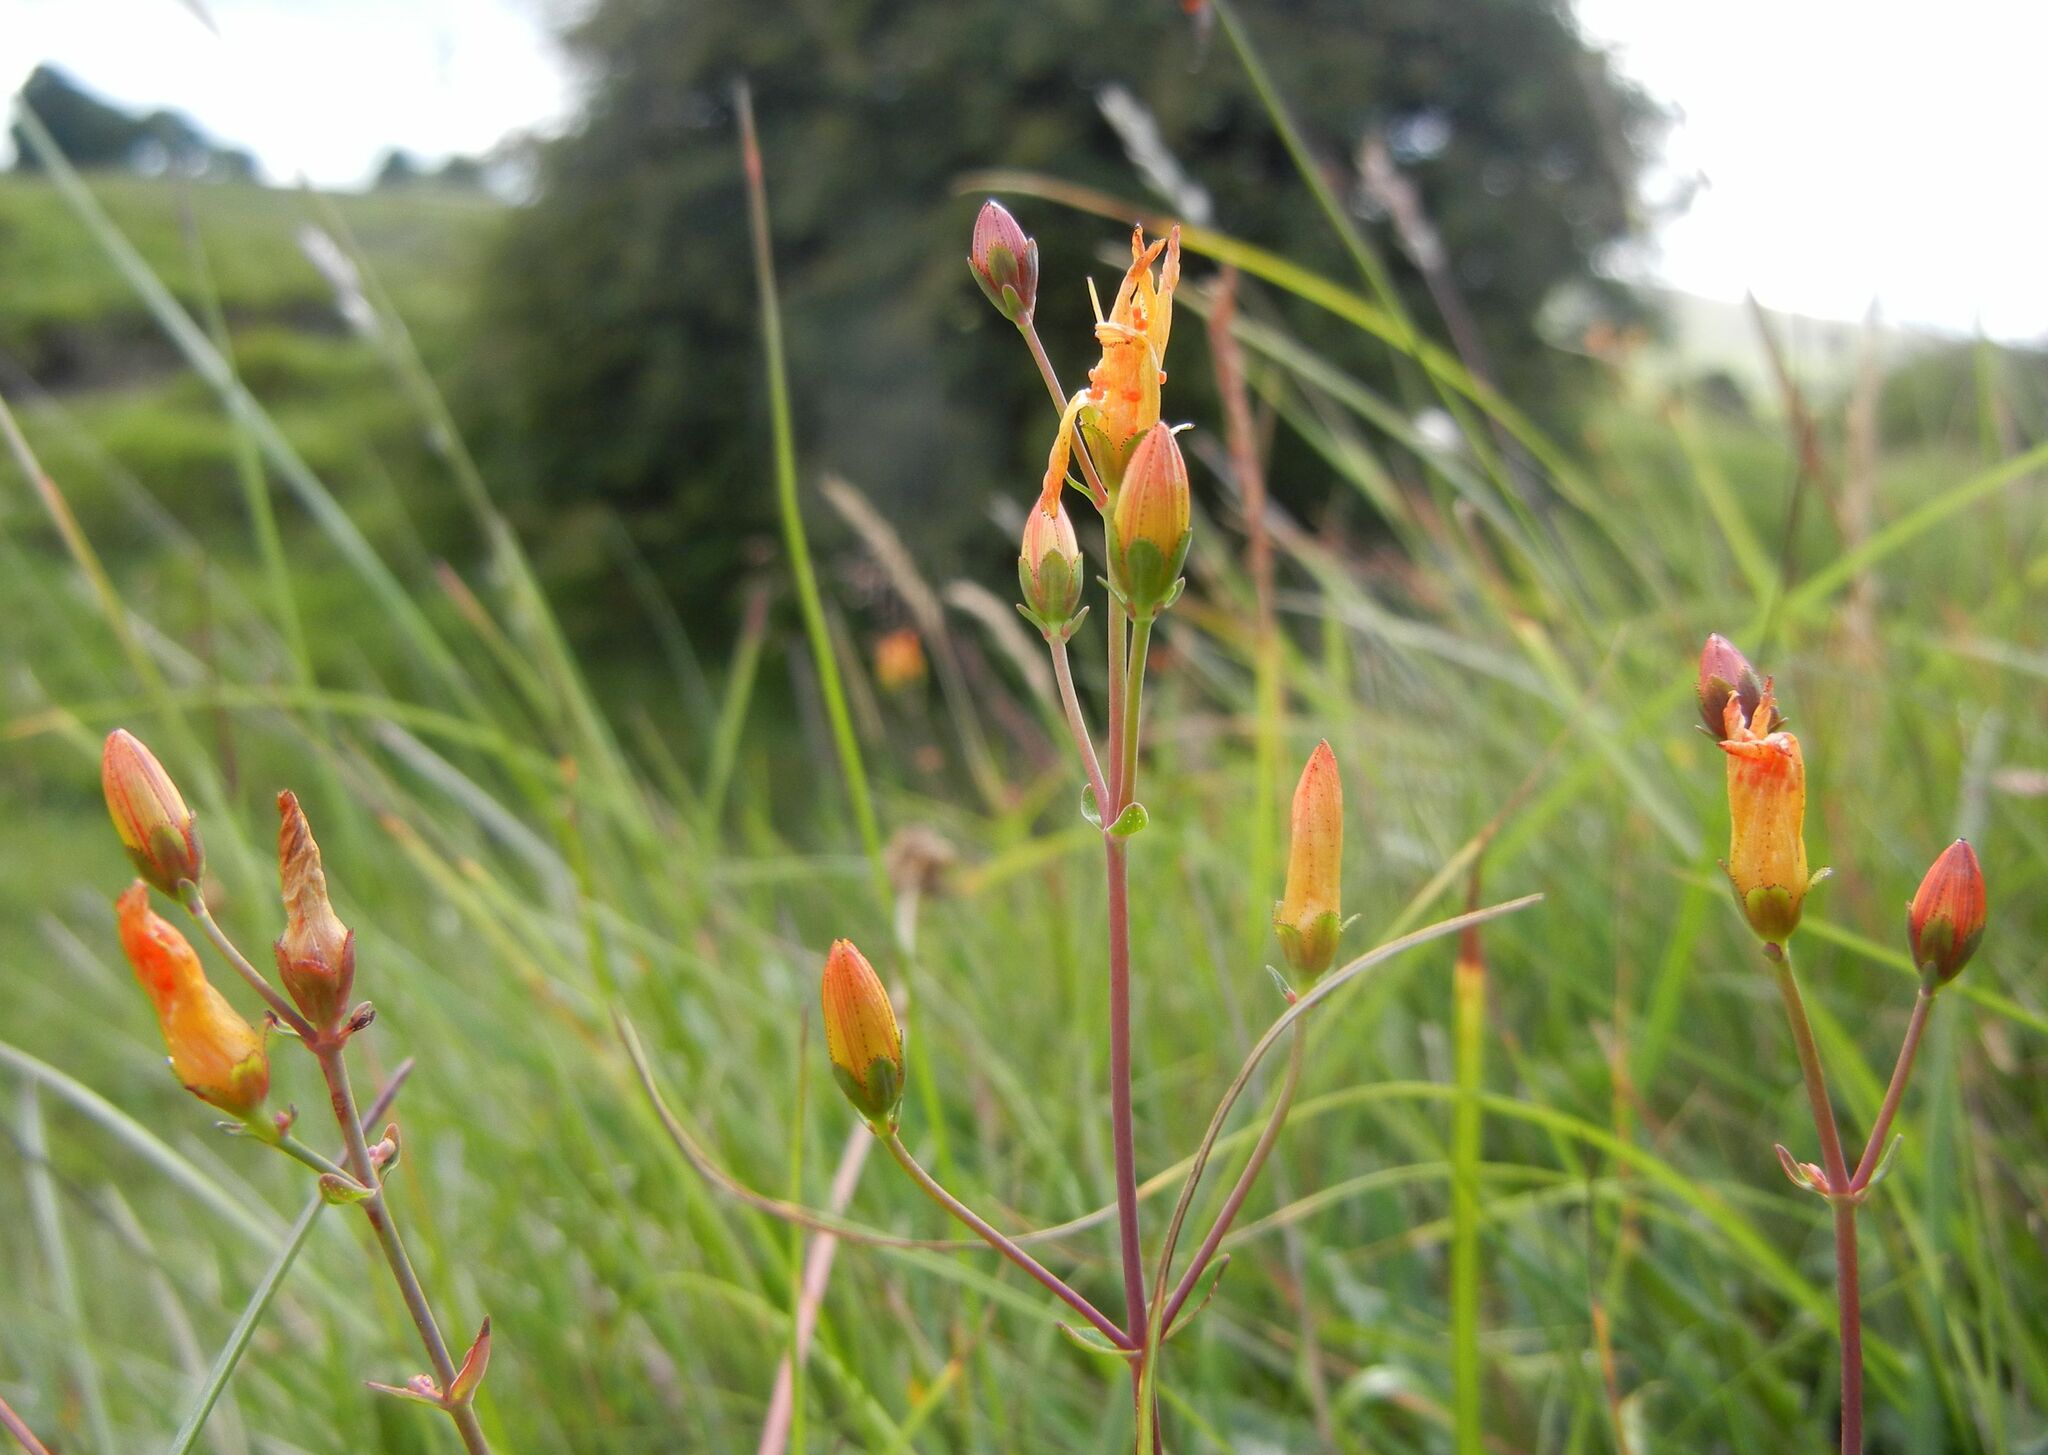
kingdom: Plantae
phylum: Tracheophyta
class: Magnoliopsida
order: Malpighiales
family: Hypericaceae
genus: Hypericum
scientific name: Hypericum pulchrum
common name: Slender st. john's-wort
